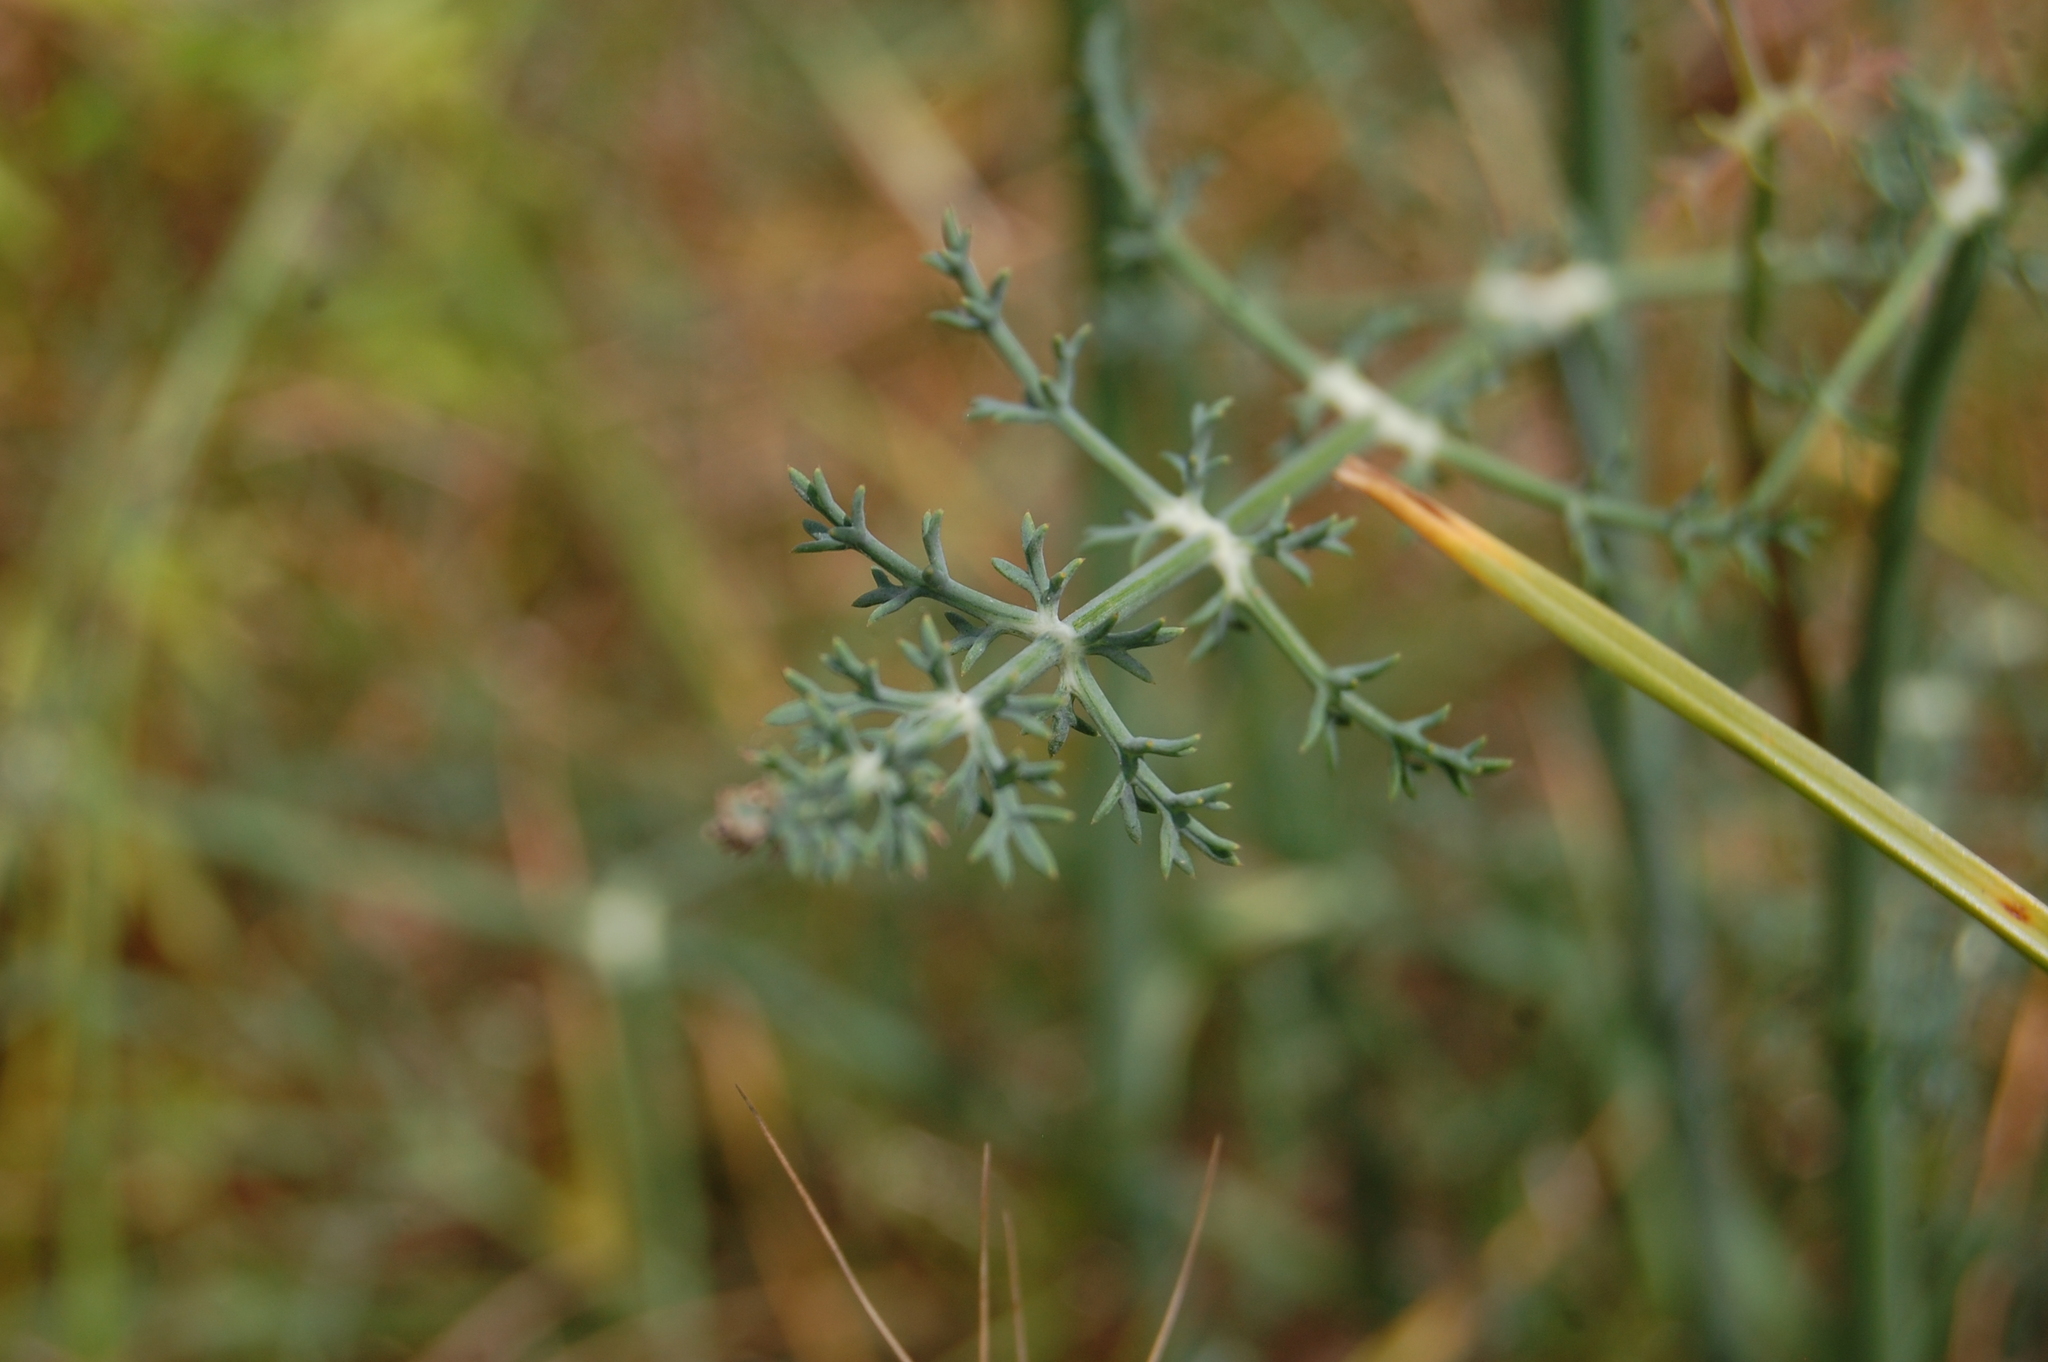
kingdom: Plantae
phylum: Tracheophyta
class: Magnoliopsida
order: Apiales
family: Apiaceae
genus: Foeniculum
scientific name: Foeniculum vulgare
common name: Fennel
